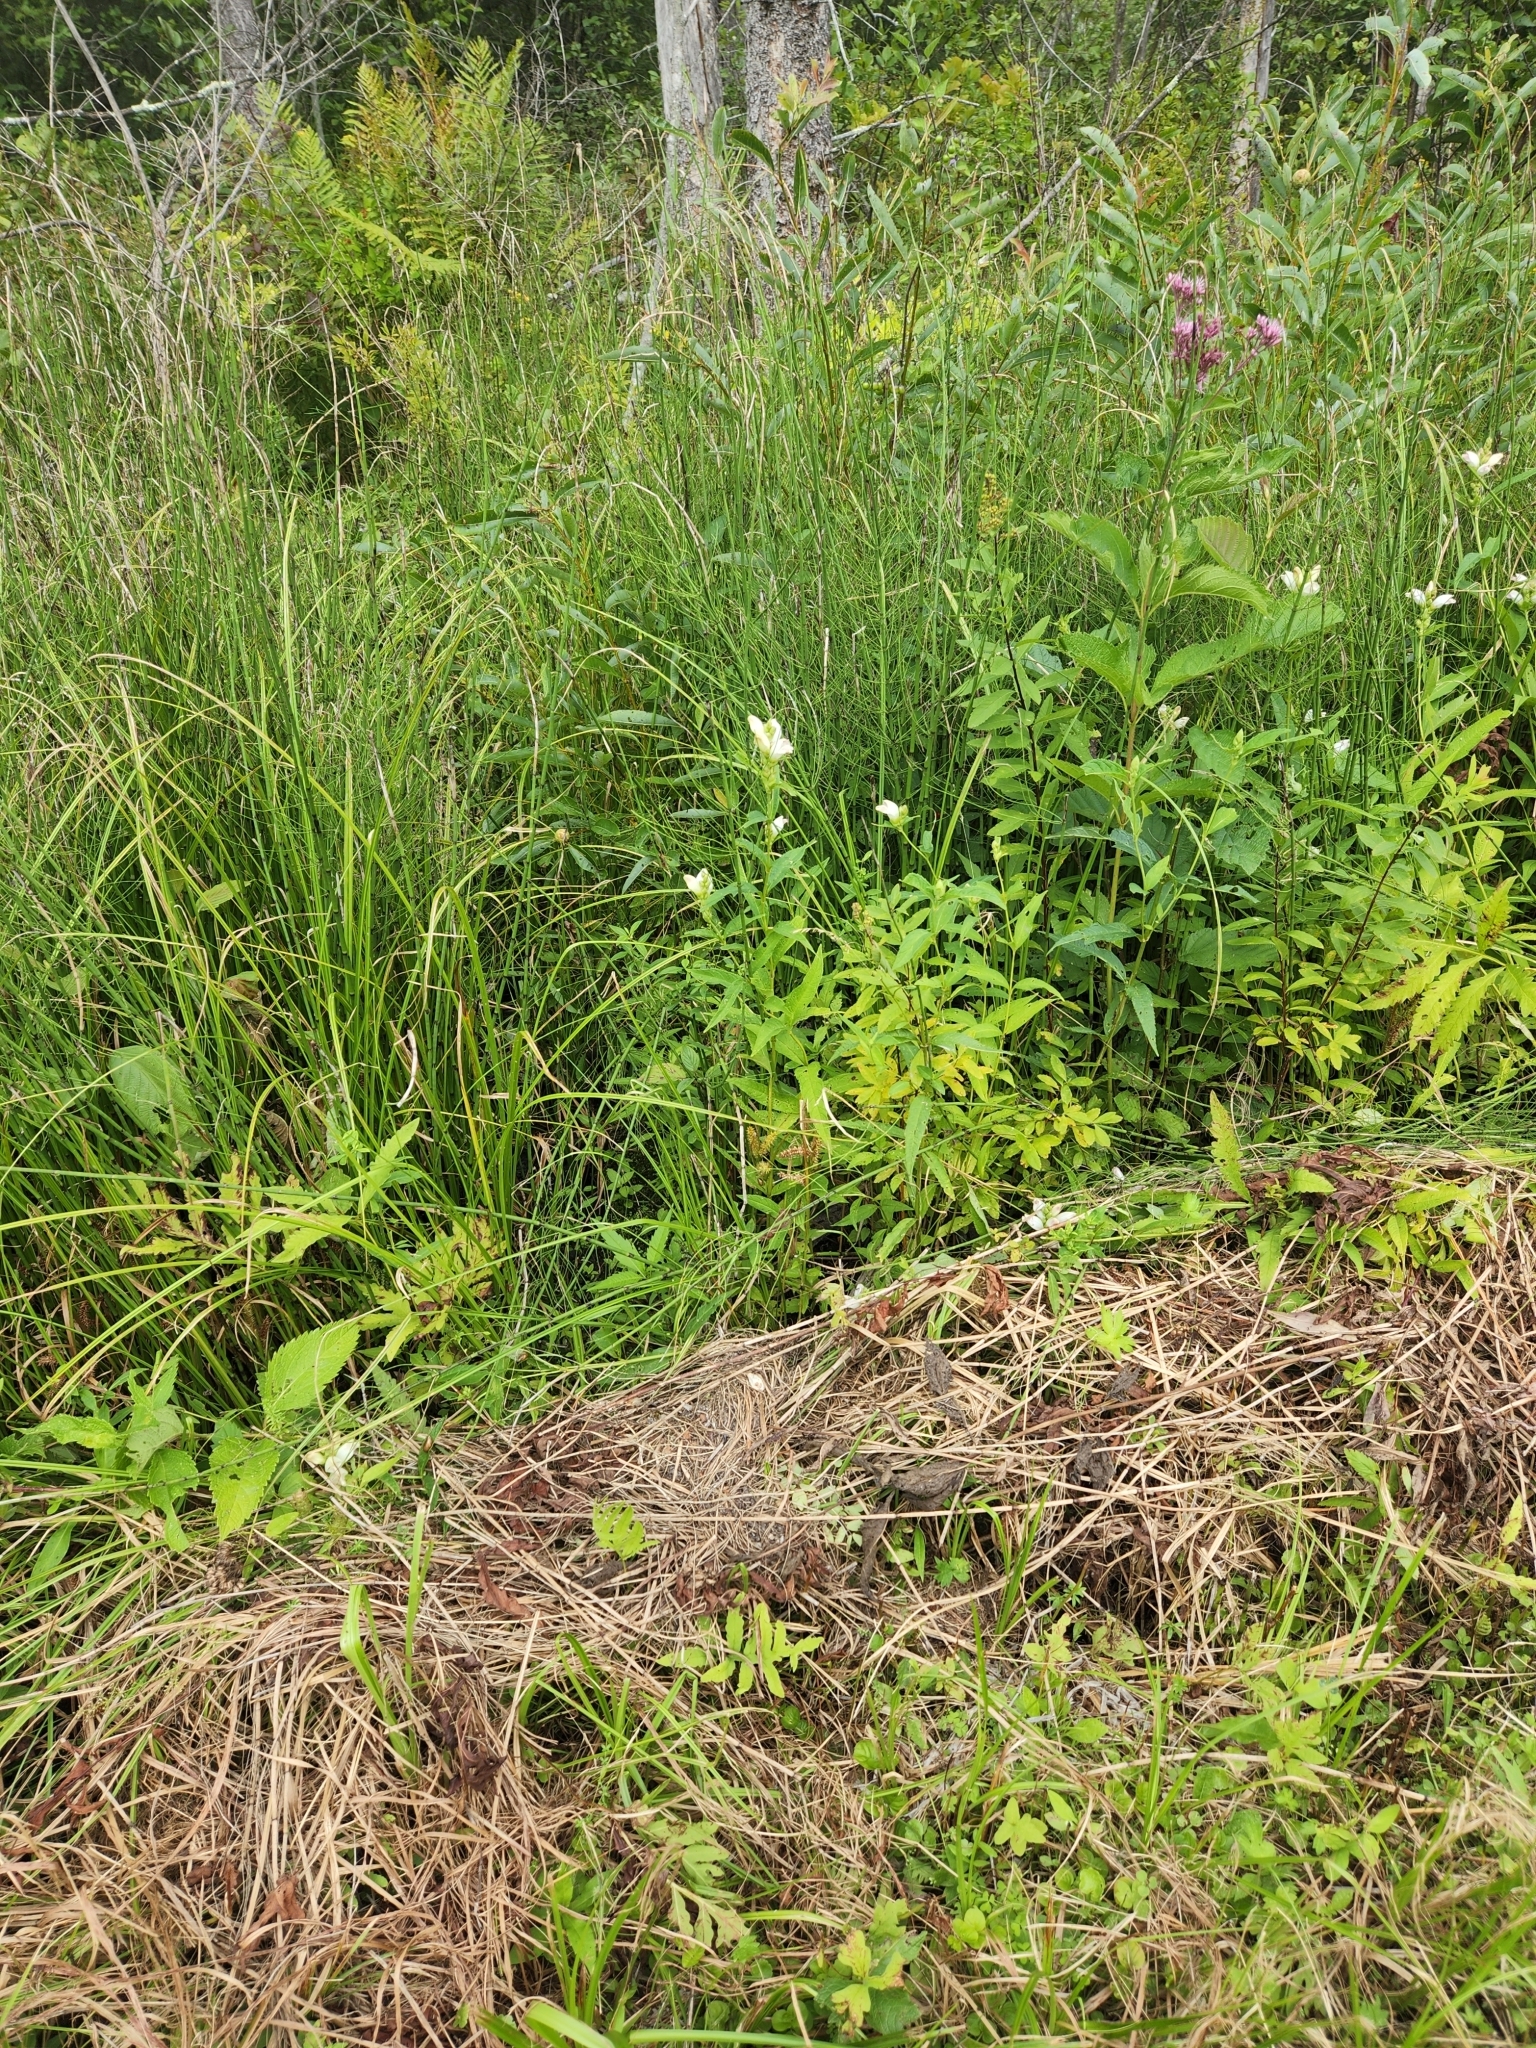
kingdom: Plantae
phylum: Tracheophyta
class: Magnoliopsida
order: Lamiales
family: Plantaginaceae
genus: Chelone
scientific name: Chelone glabra
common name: Snakehead
